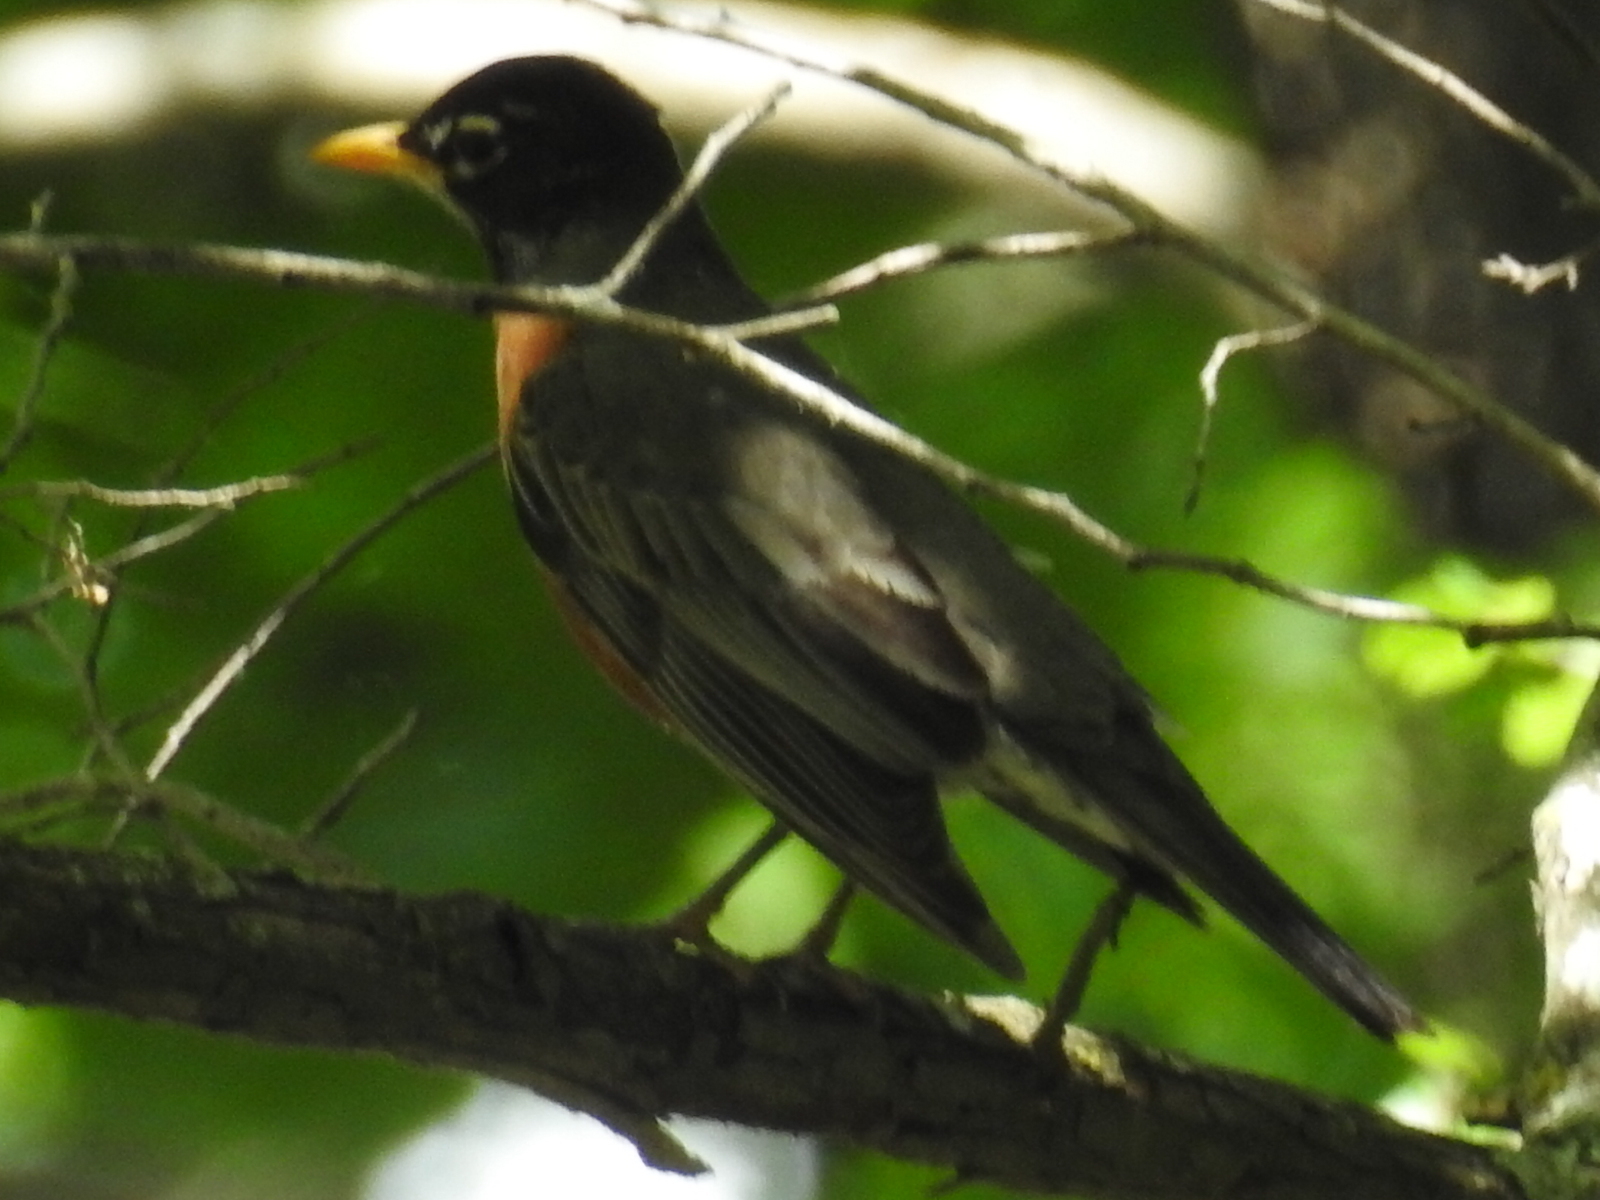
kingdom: Animalia
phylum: Chordata
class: Aves
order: Passeriformes
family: Turdidae
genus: Turdus
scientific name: Turdus migratorius
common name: American robin
